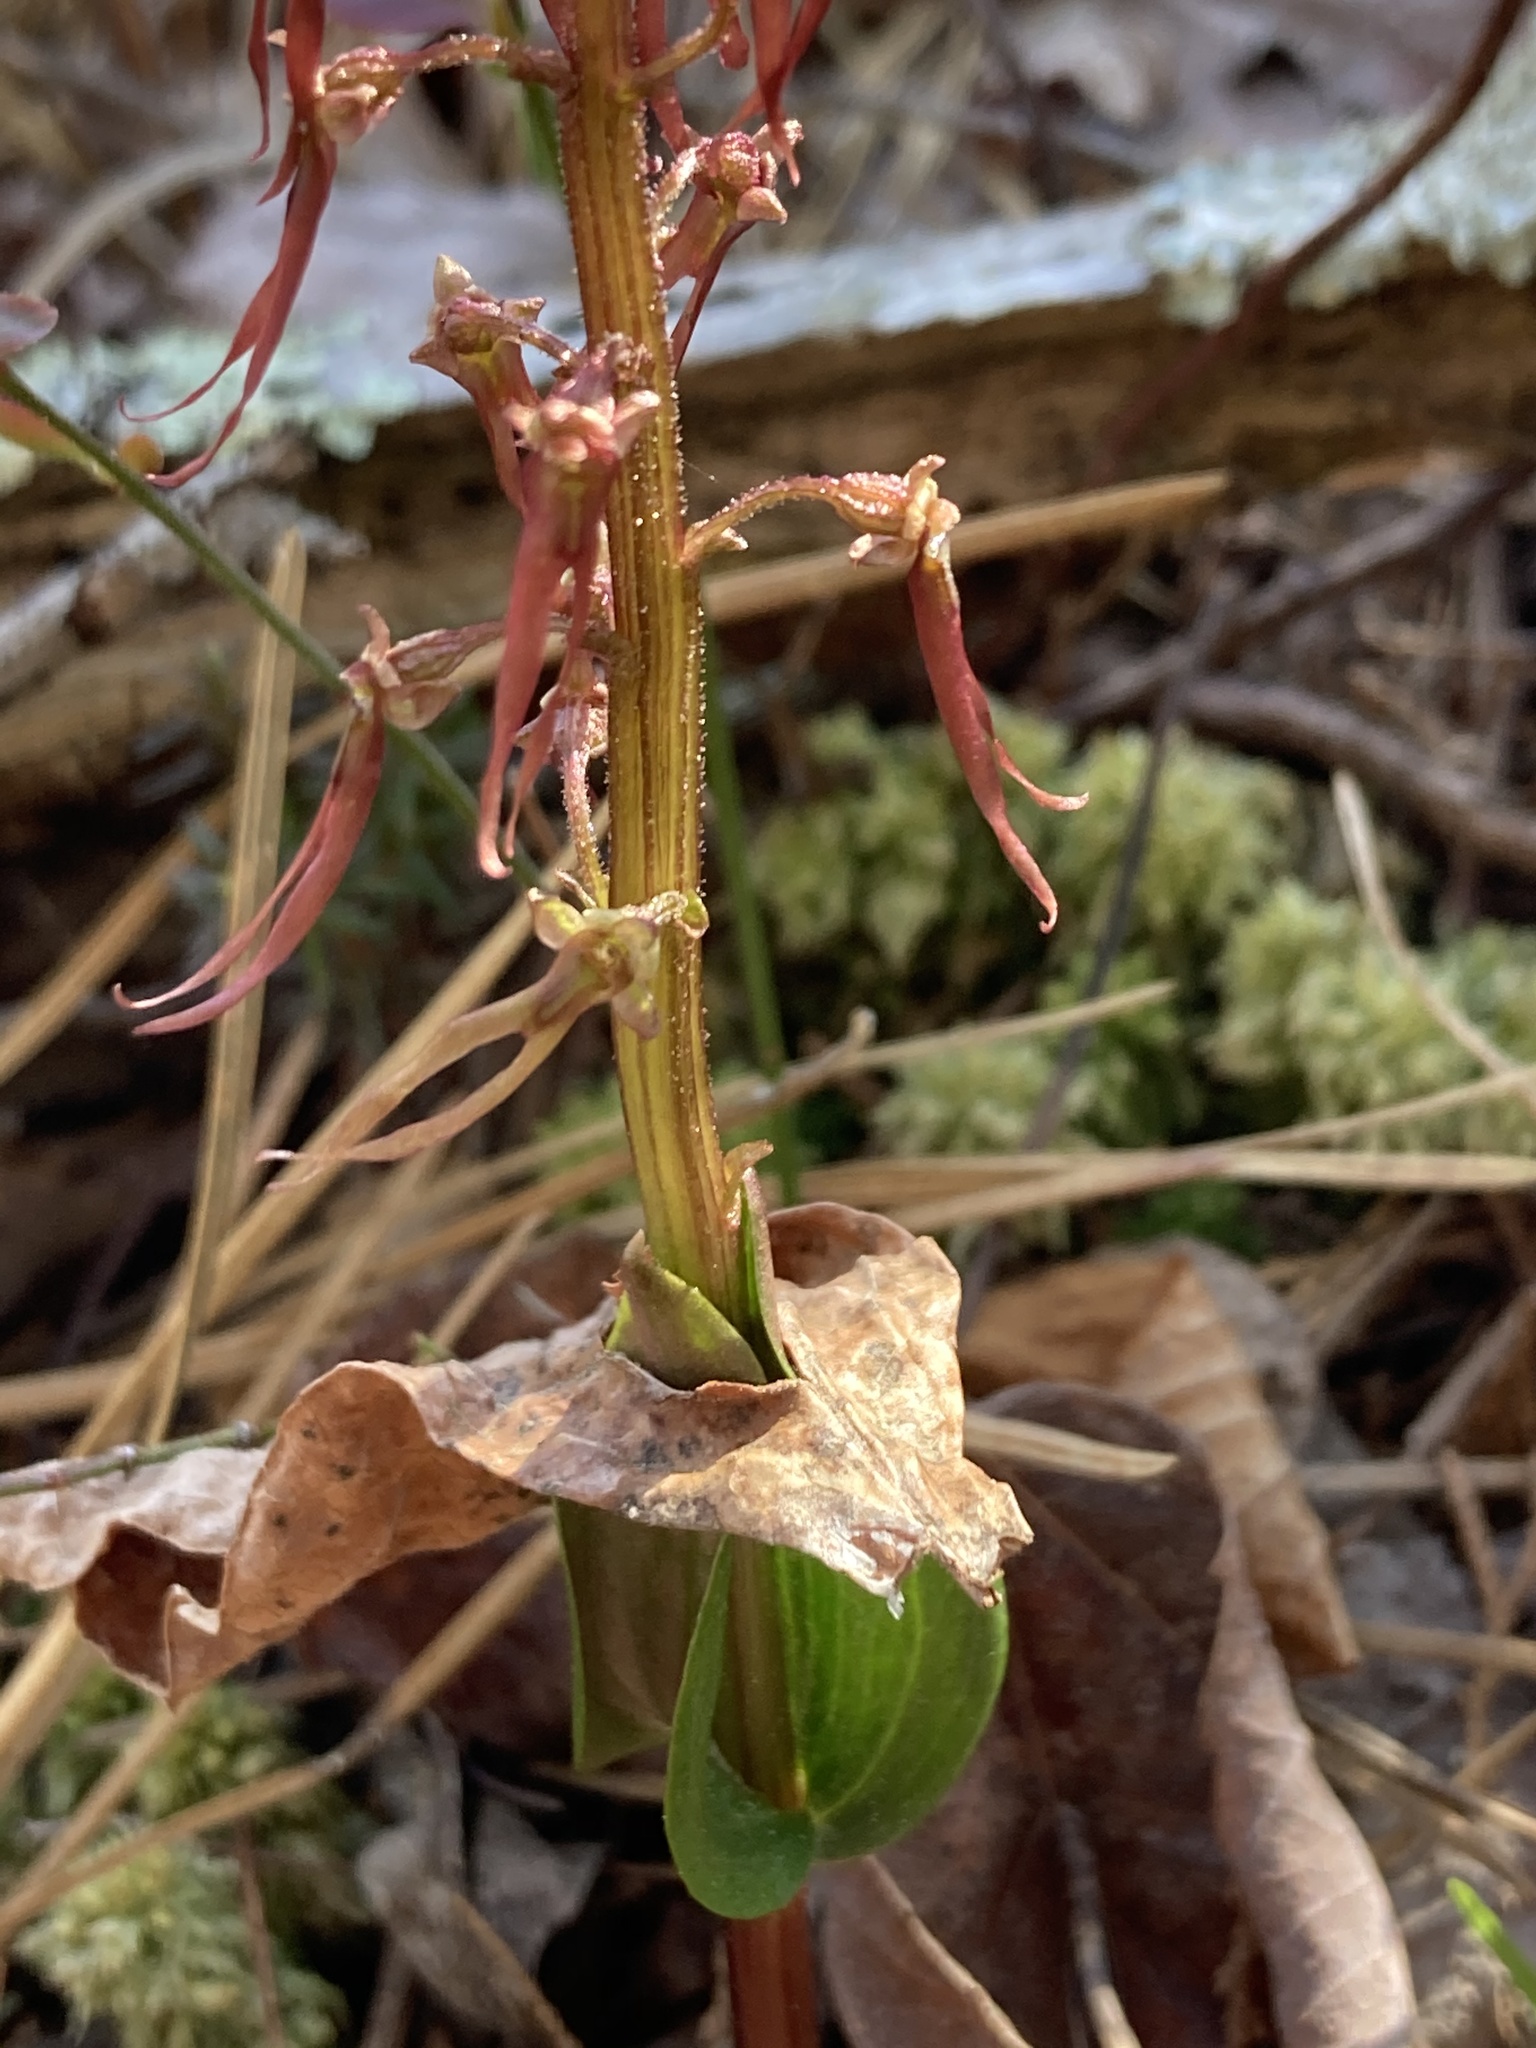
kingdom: Plantae
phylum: Tracheophyta
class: Liliopsida
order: Asparagales
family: Orchidaceae
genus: Neottia
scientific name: Neottia bifolia
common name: Southern twayblade
